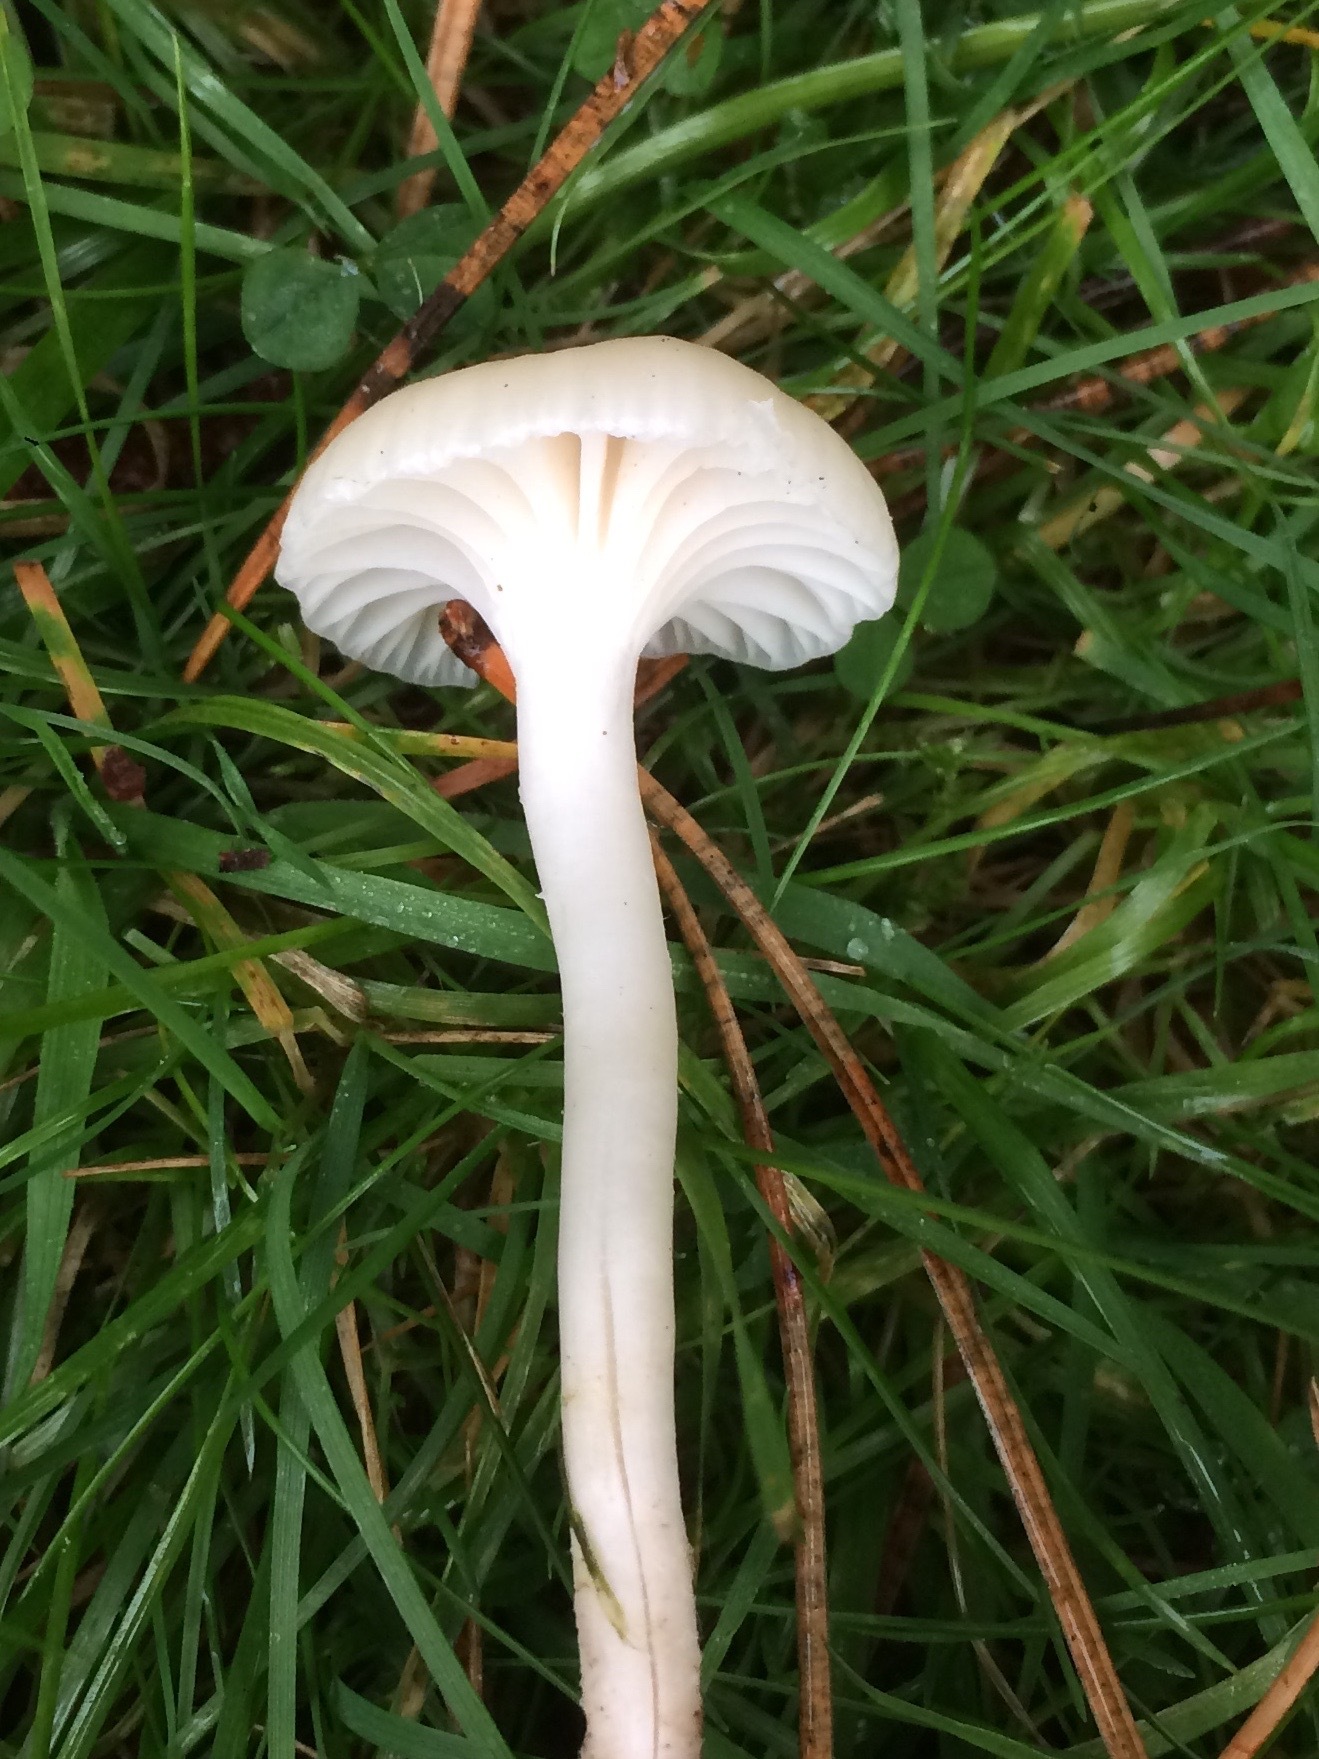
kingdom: Fungi
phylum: Basidiomycota
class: Agaricomycetes
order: Agaricales
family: Hygrophoraceae
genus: Cuphophyllus
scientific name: Cuphophyllus virgineus
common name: Snowy waxcap
